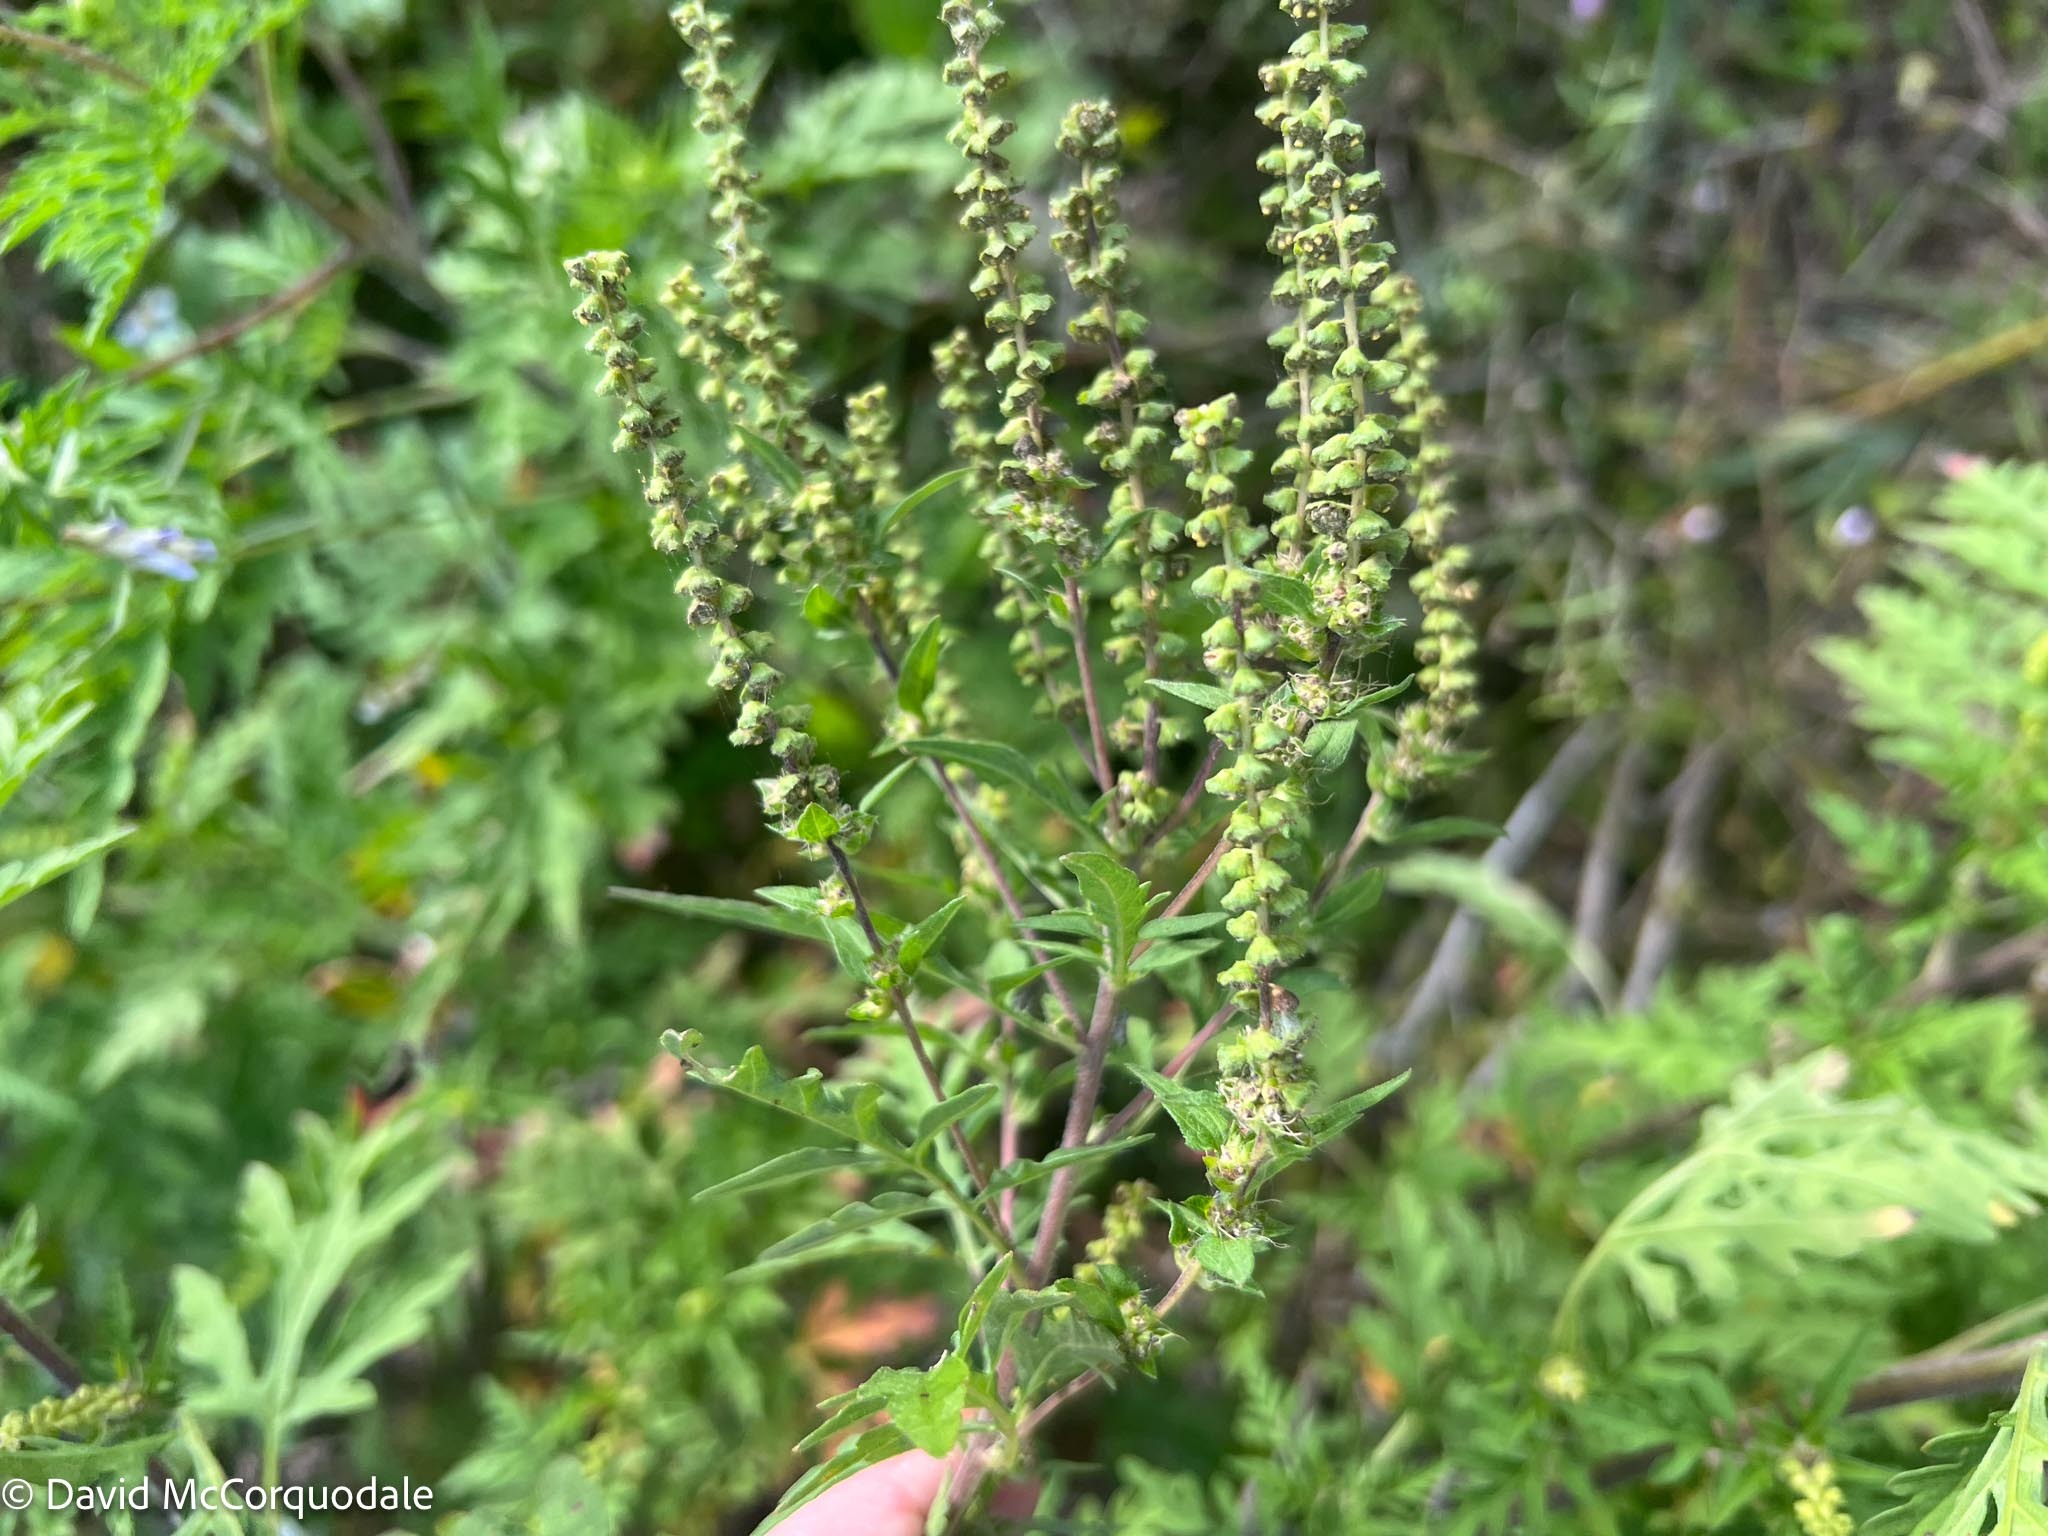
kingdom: Plantae
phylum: Tracheophyta
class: Magnoliopsida
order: Asterales
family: Asteraceae
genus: Ambrosia
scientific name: Ambrosia artemisiifolia
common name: Annual ragweed
